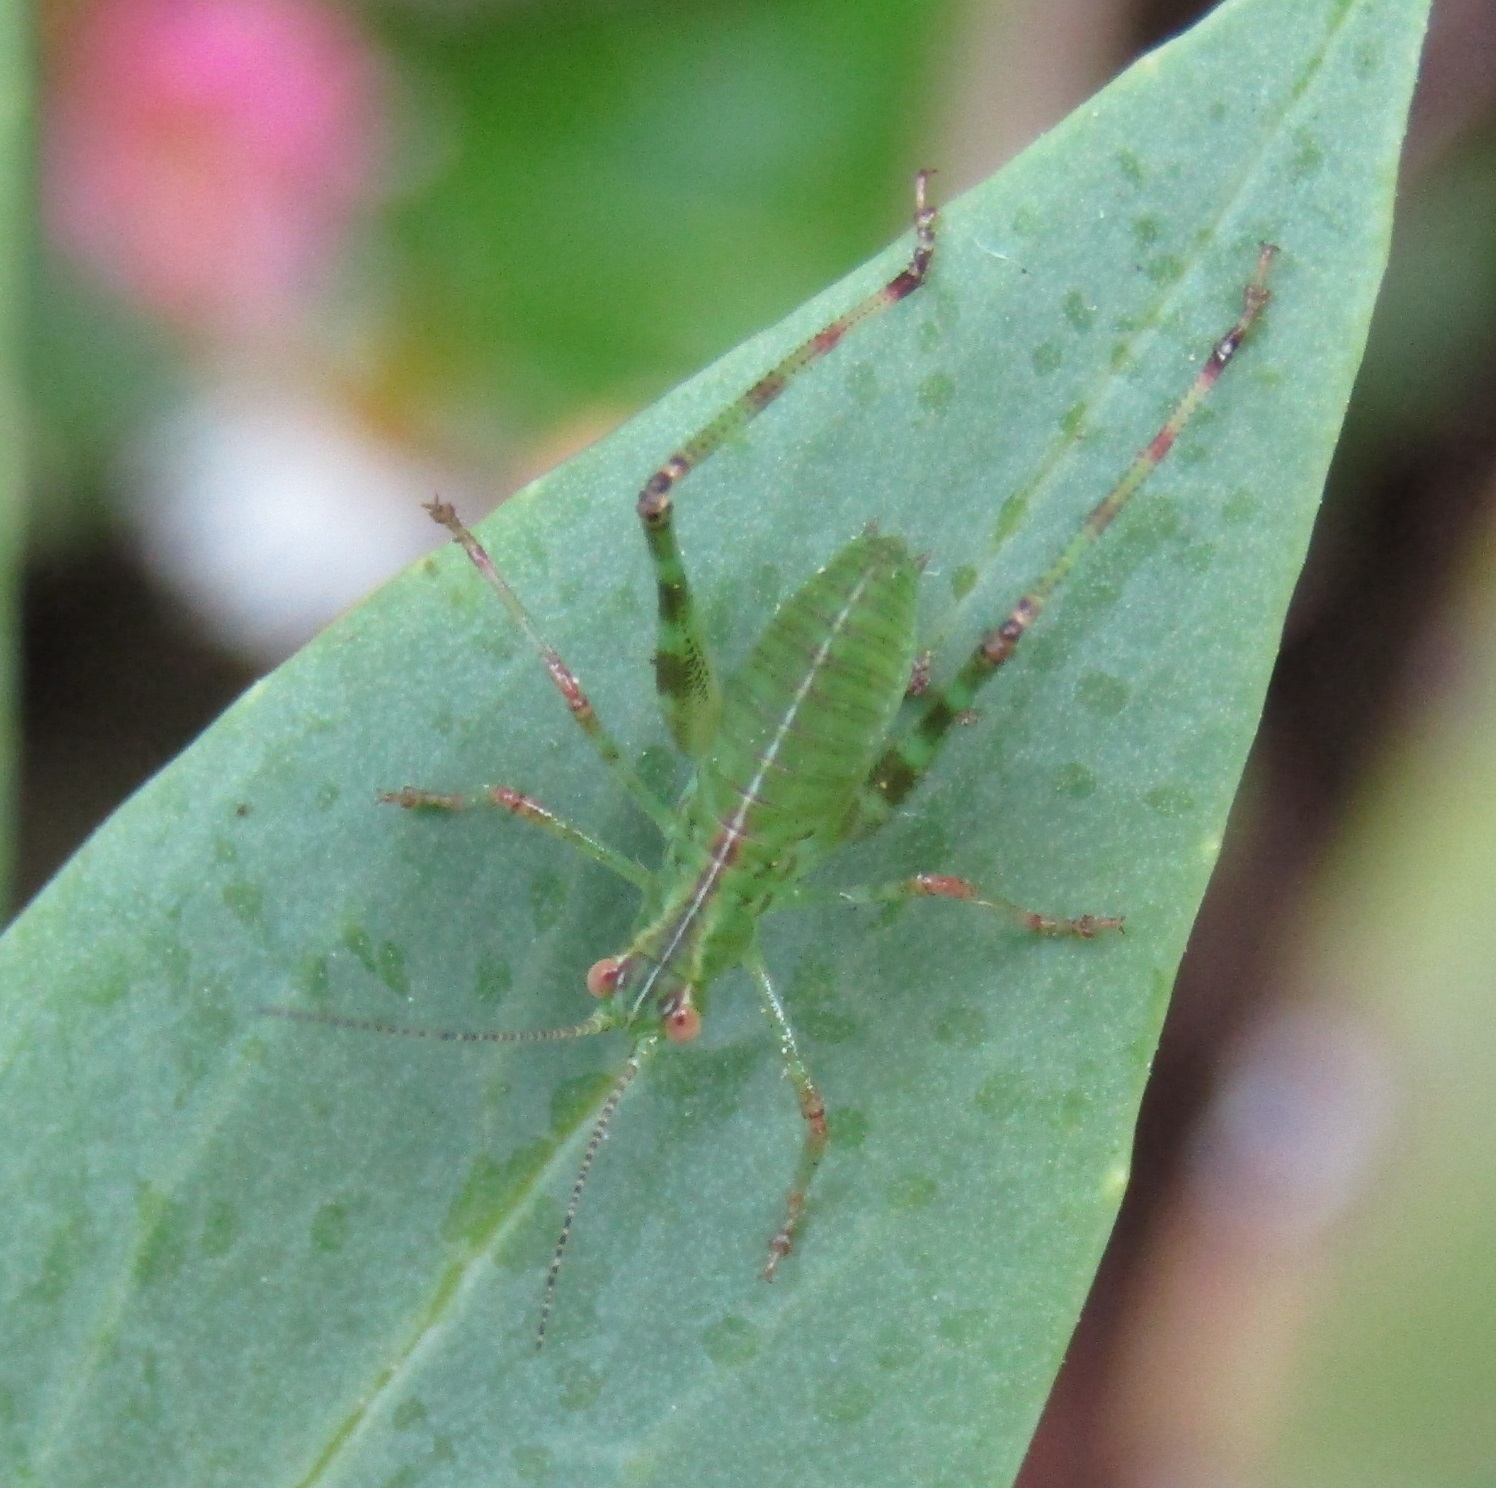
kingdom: Animalia
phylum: Arthropoda
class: Insecta
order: Orthoptera
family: Tettigoniidae
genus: Caedicia
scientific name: Caedicia simplex
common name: Common garden katydid
